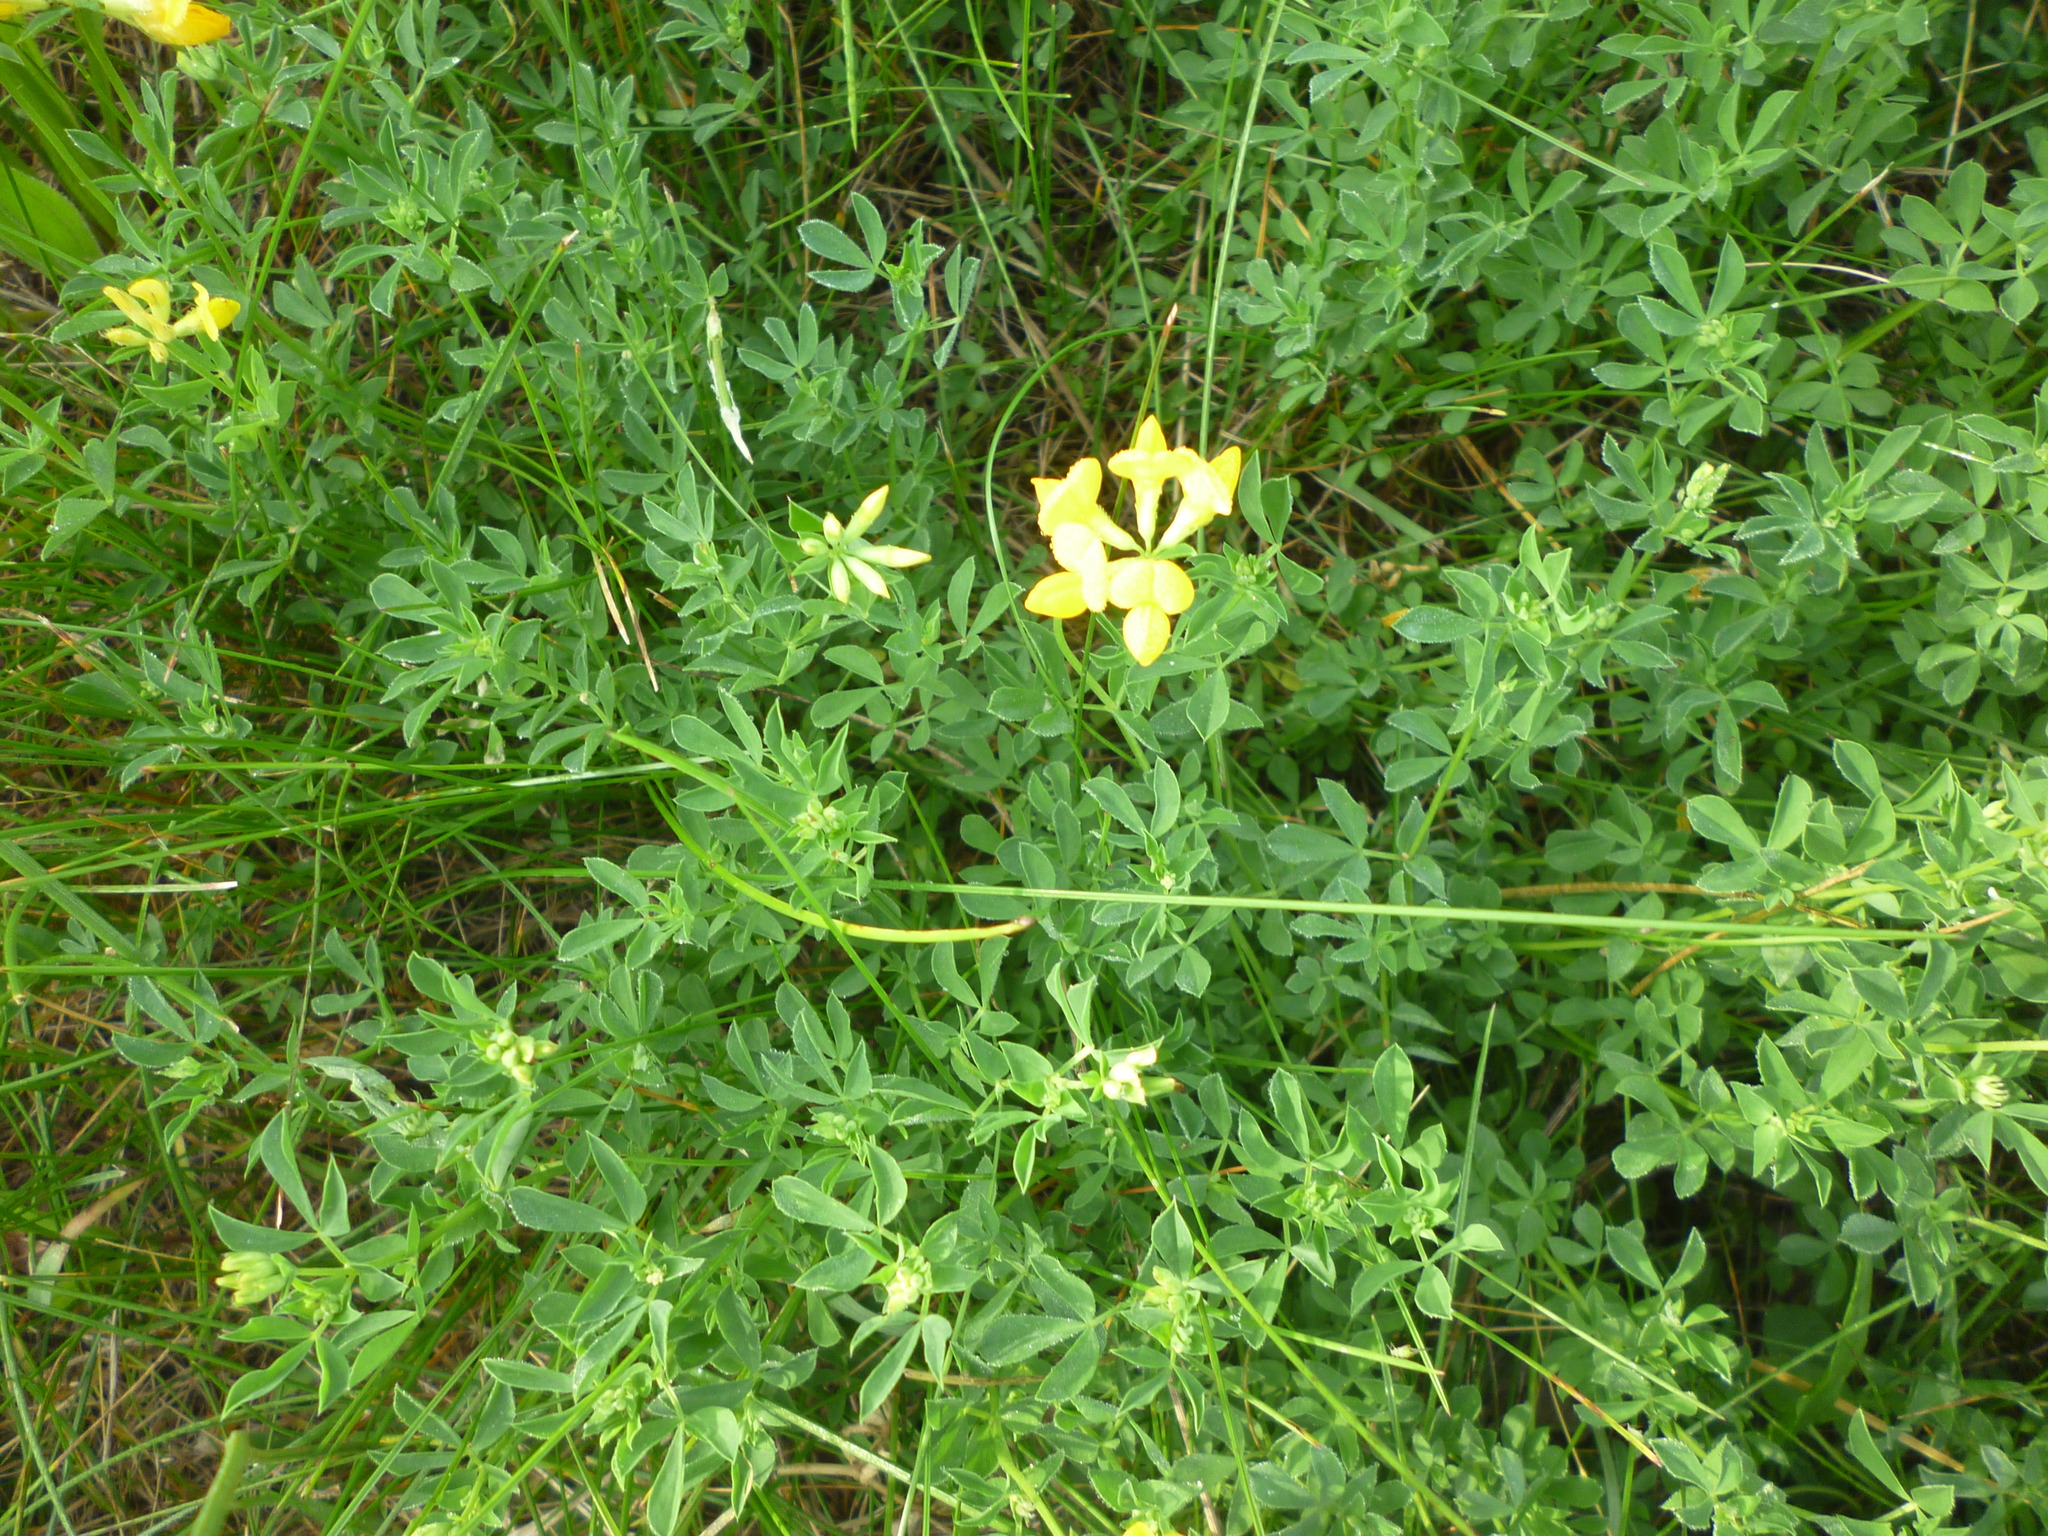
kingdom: Plantae
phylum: Tracheophyta
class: Magnoliopsida
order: Fabales
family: Fabaceae
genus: Lotus
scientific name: Lotus corniculatus
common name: Common bird's-foot-trefoil
